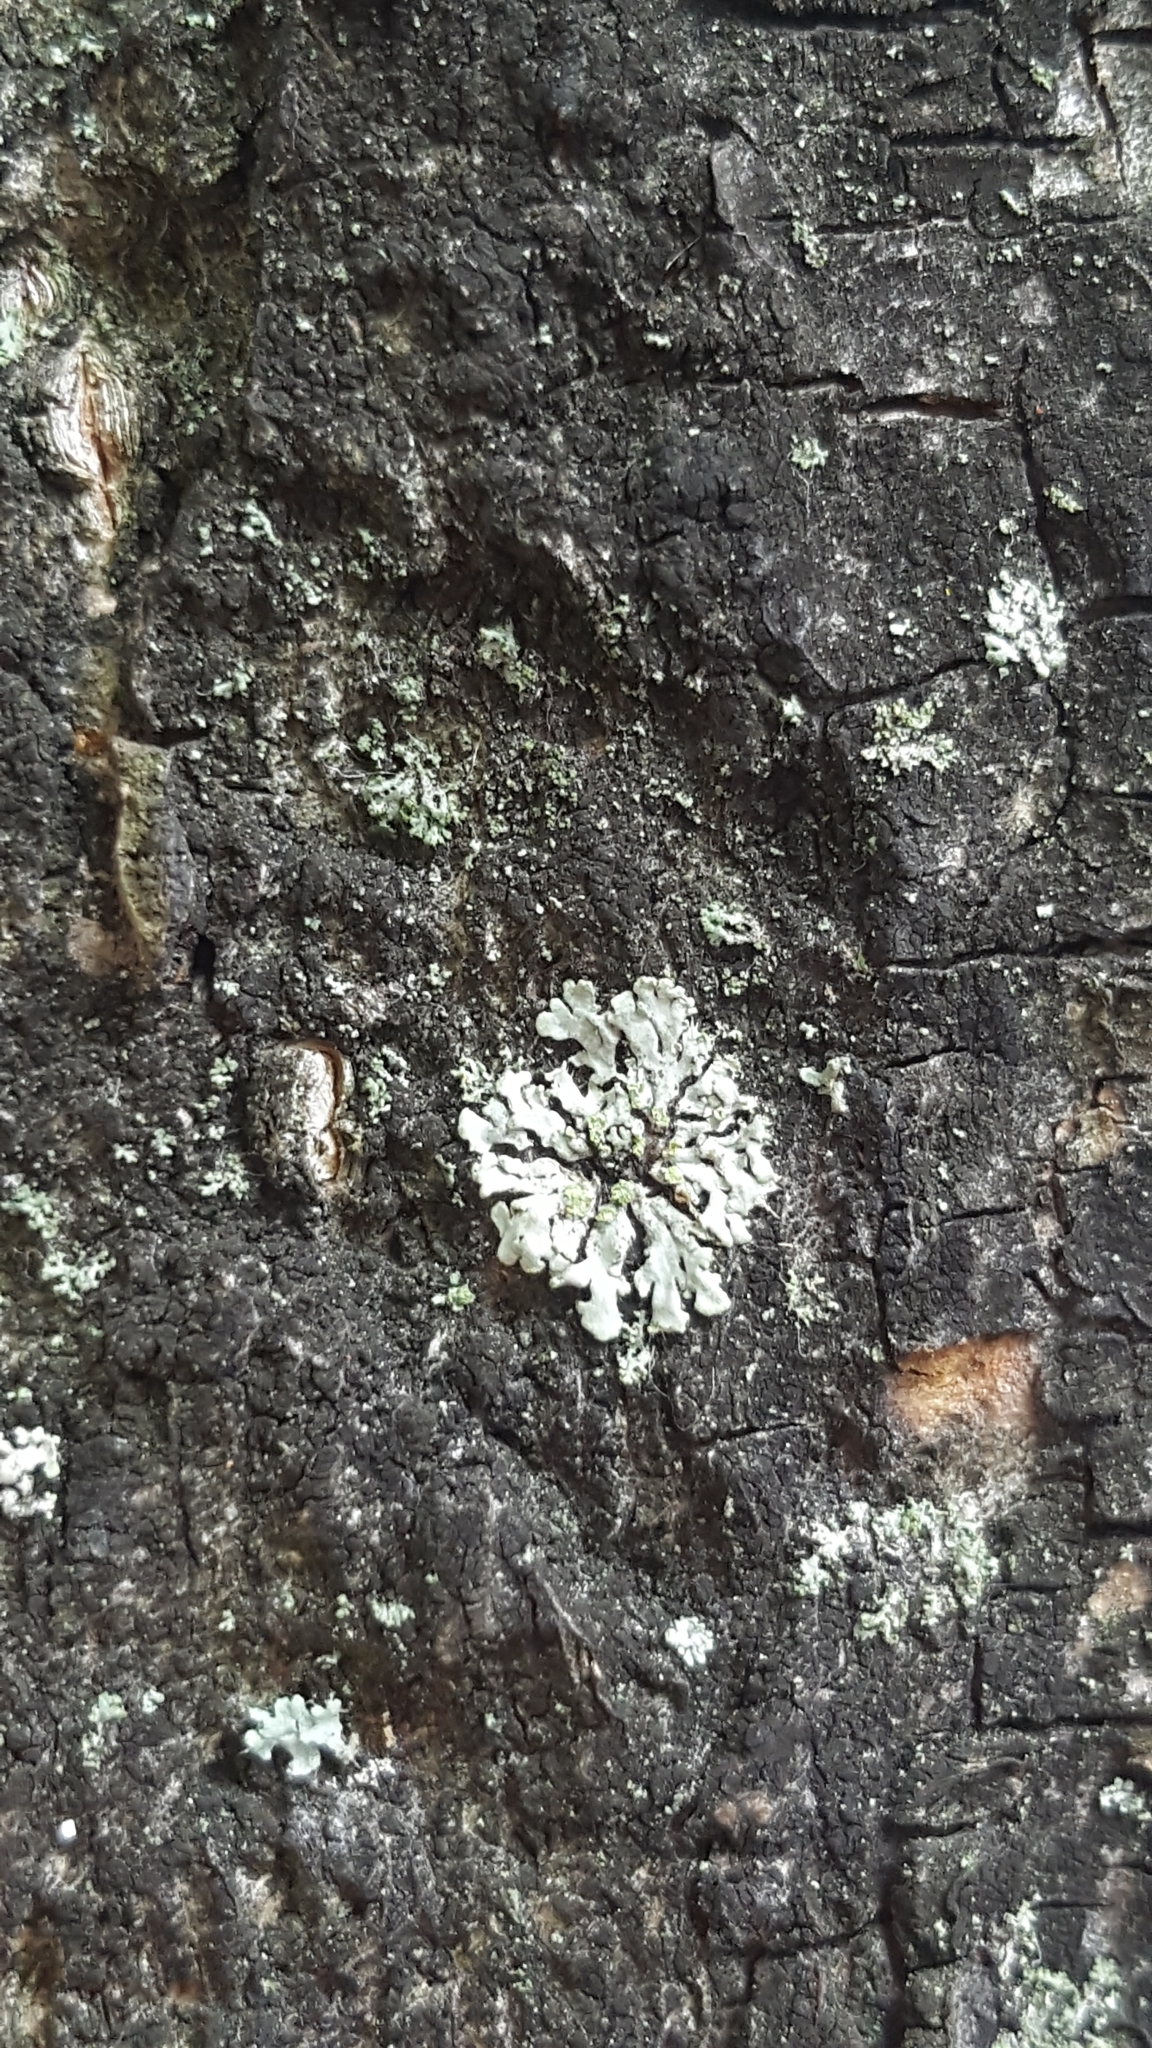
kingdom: Fungi
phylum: Ascomycota
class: Lecanoromycetes
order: Caliciales
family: Physciaceae
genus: Phaeophyscia
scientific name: Phaeophyscia orbicularis
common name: Mealy shadow lichen
